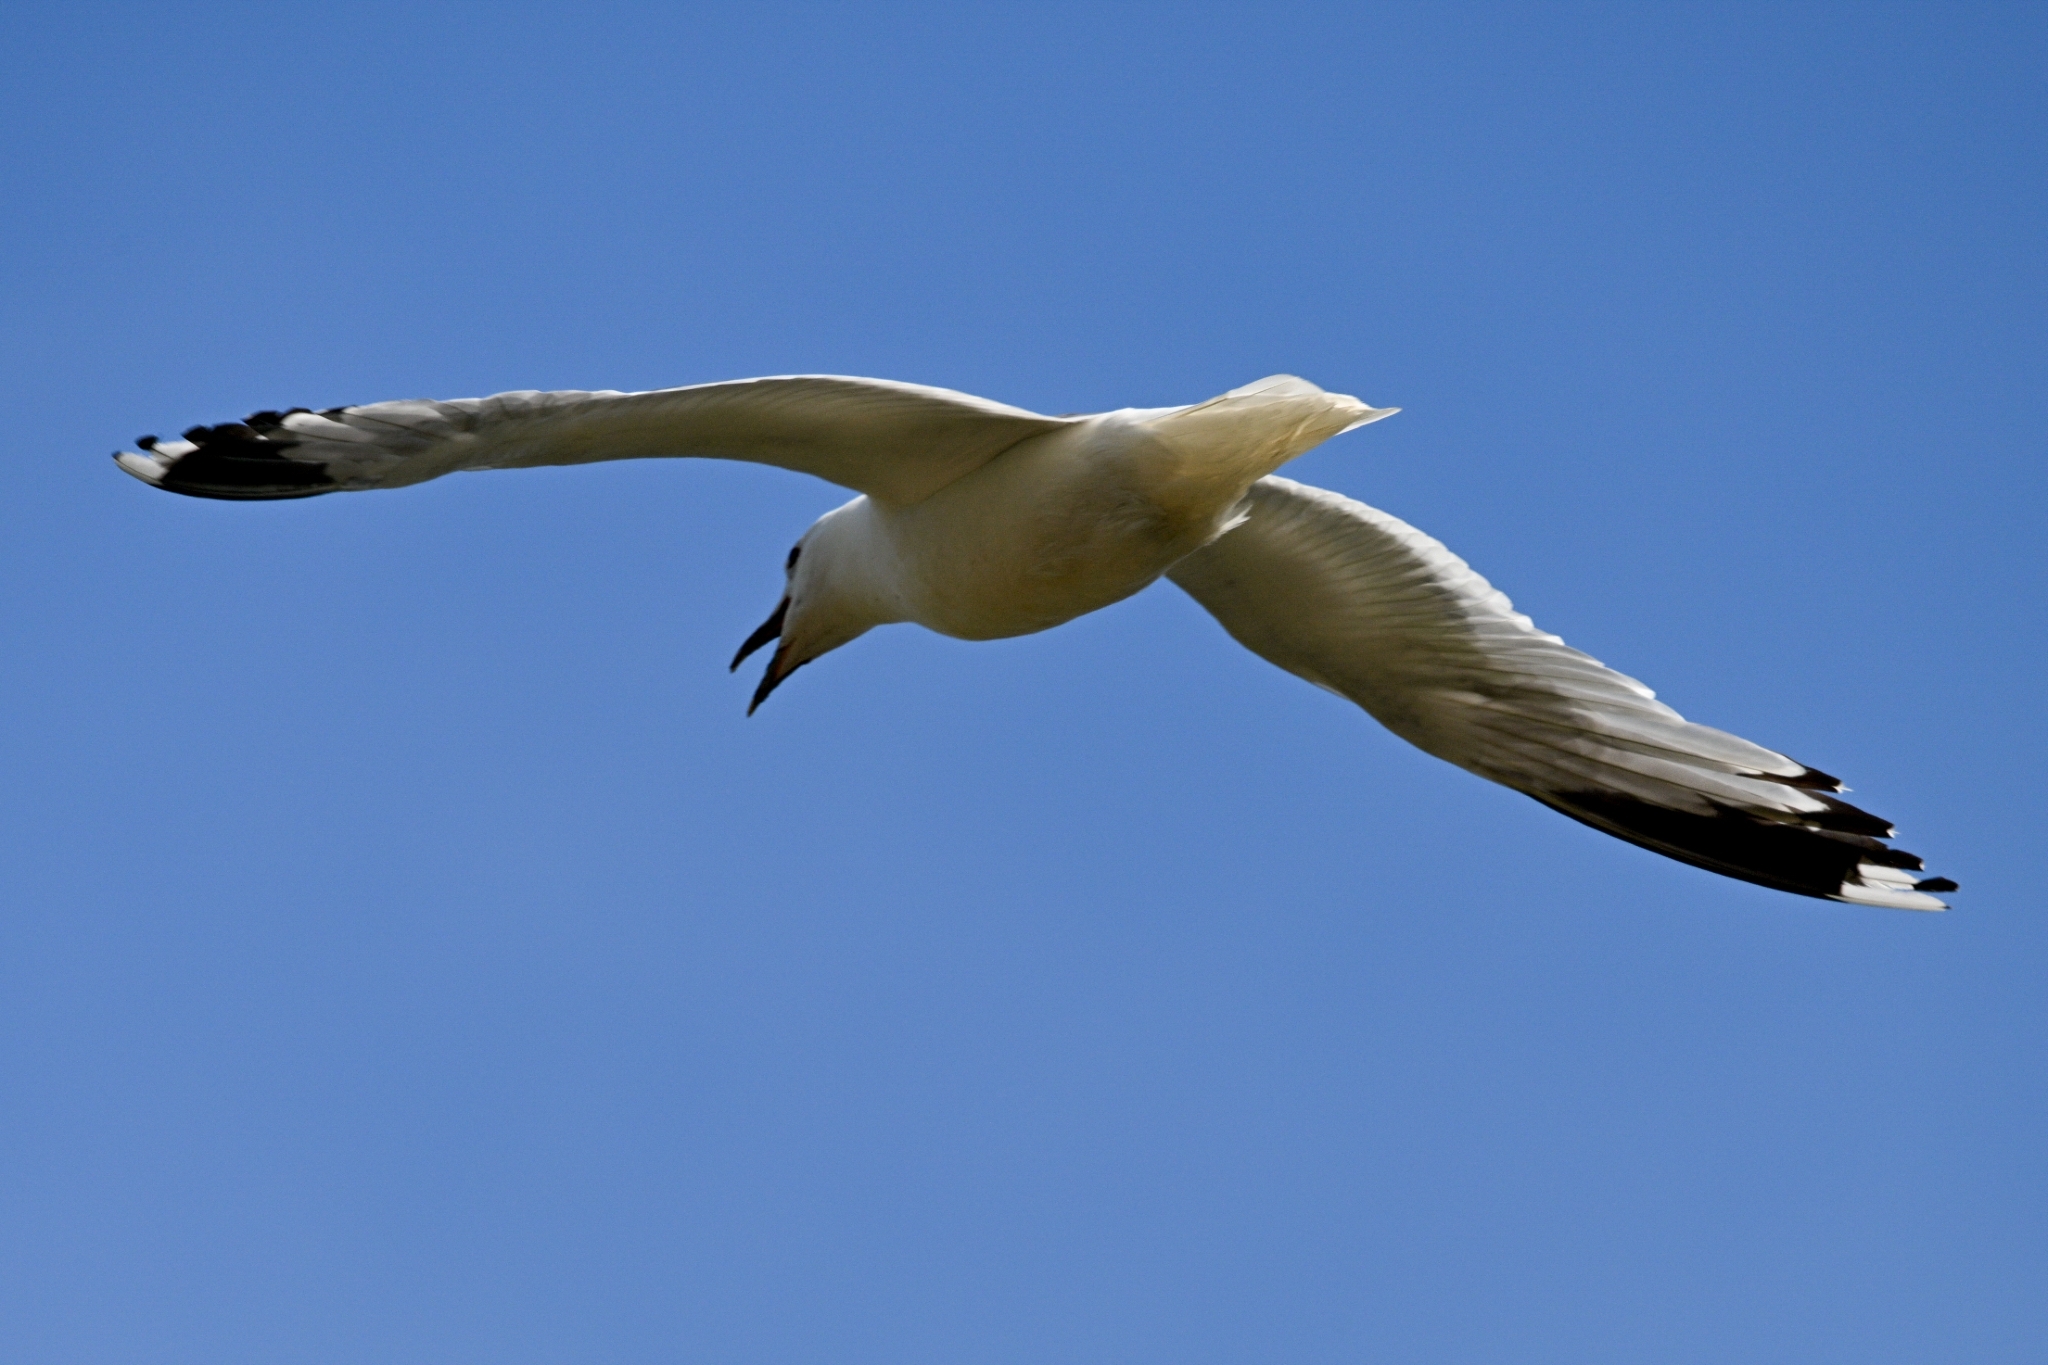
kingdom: Animalia
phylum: Chordata
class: Aves
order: Charadriiformes
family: Laridae
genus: Larus
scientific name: Larus canus
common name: Mew gull
